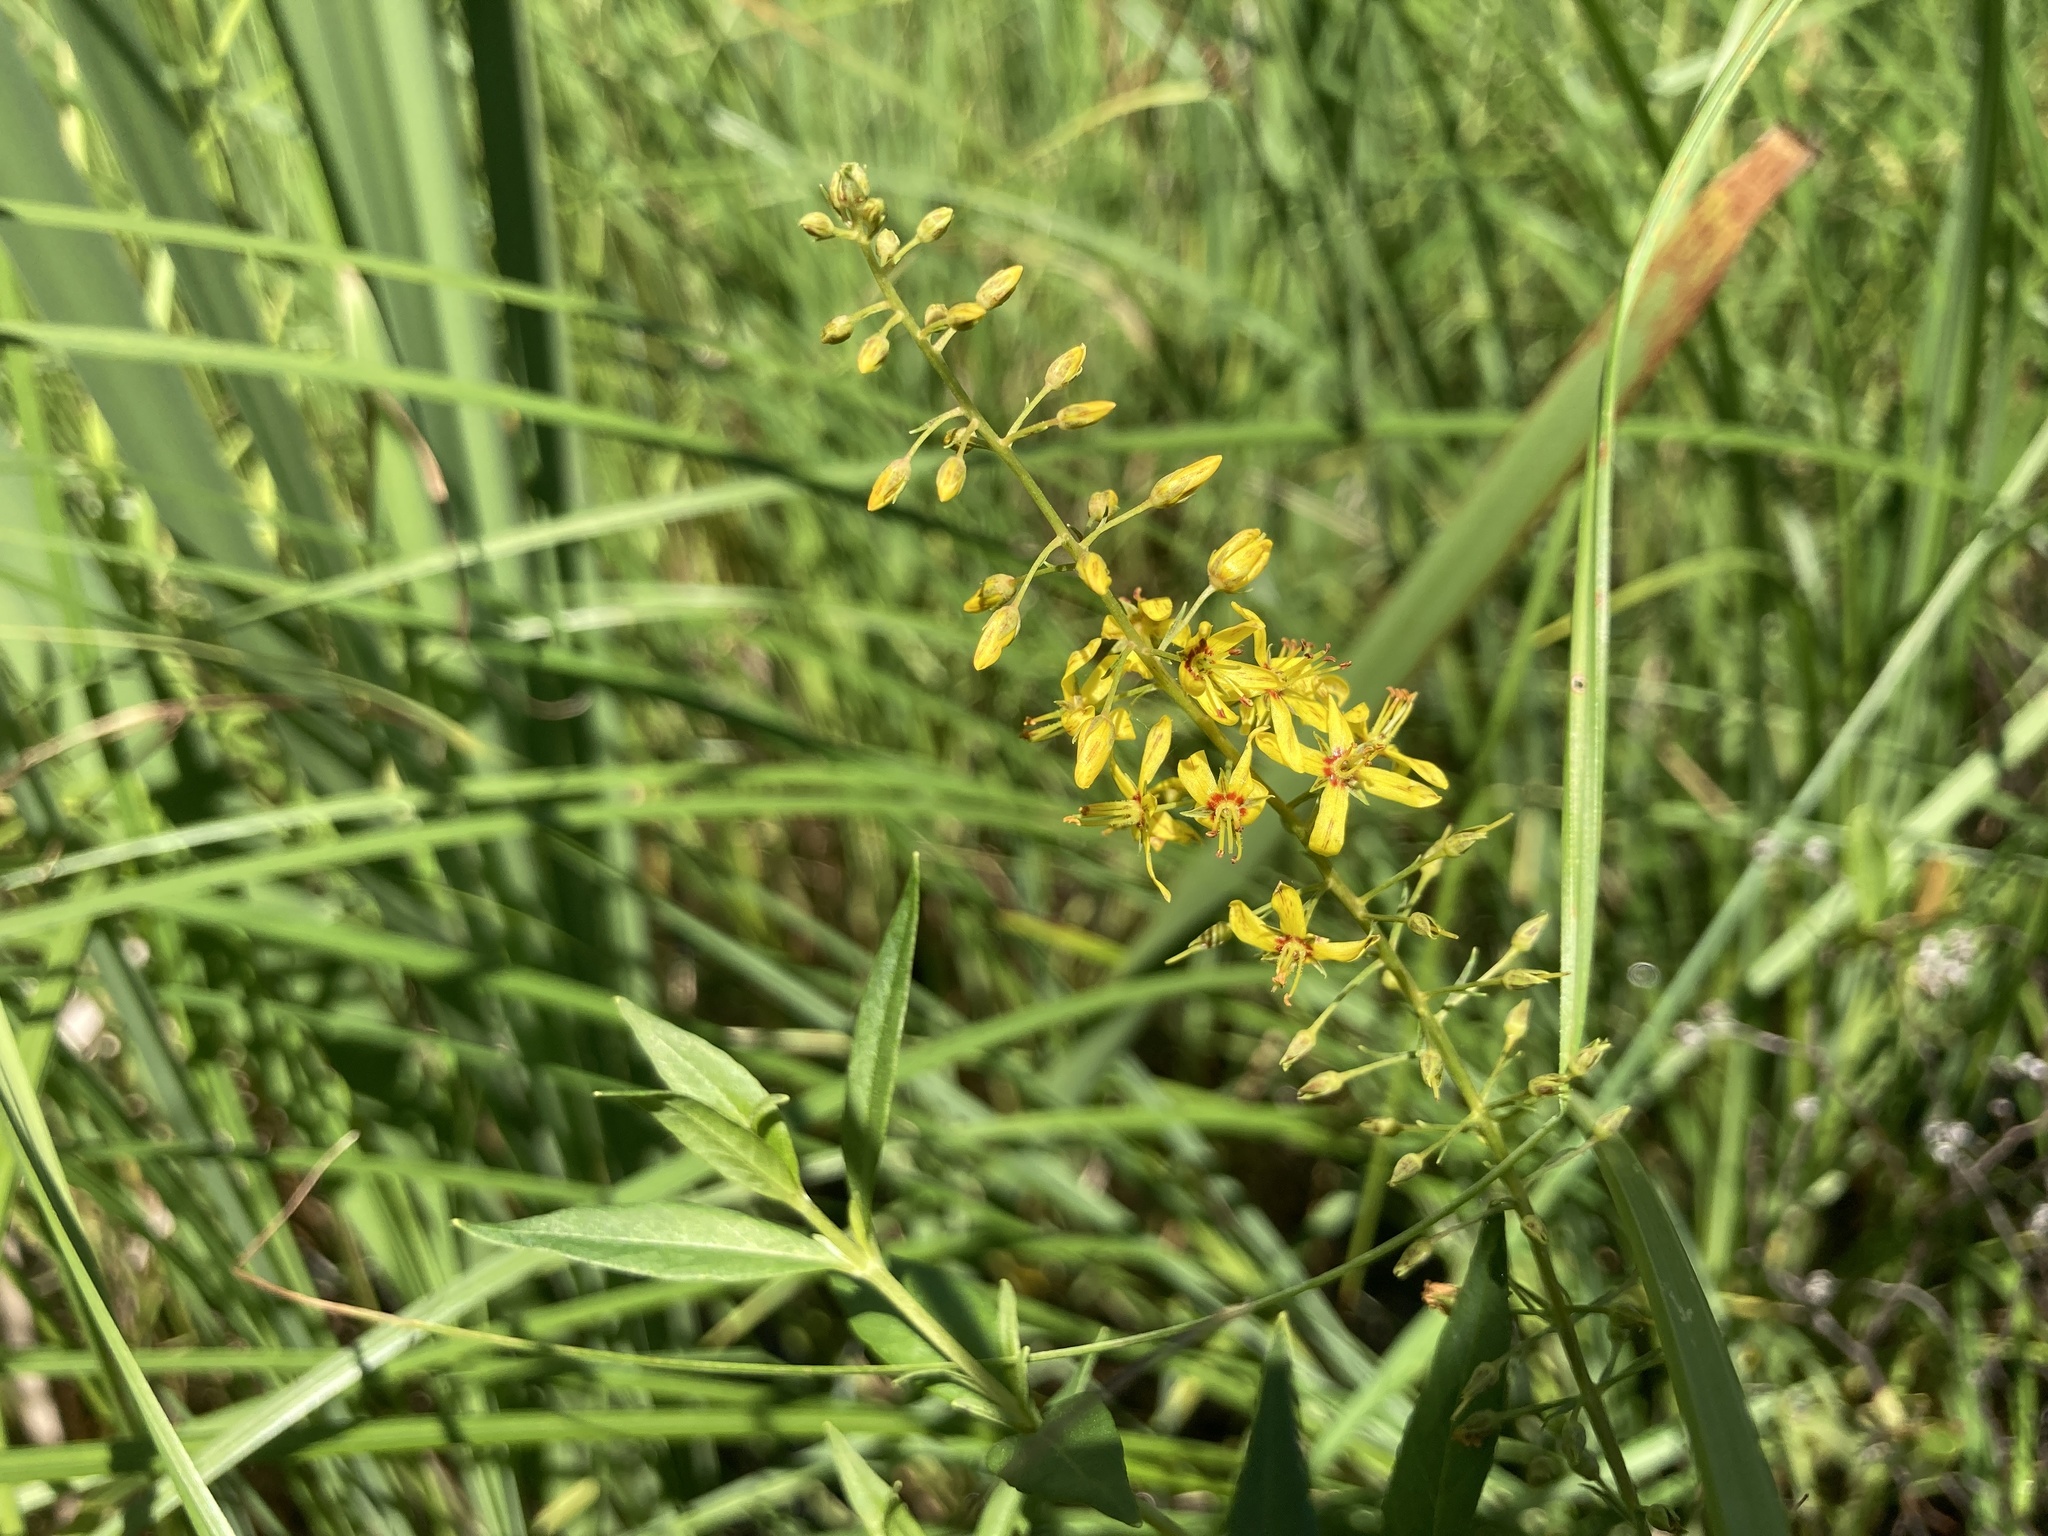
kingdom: Plantae
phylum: Tracheophyta
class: Magnoliopsida
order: Ericales
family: Primulaceae
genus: Lysimachia
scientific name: Lysimachia terrestris
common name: Lake loosestrife
